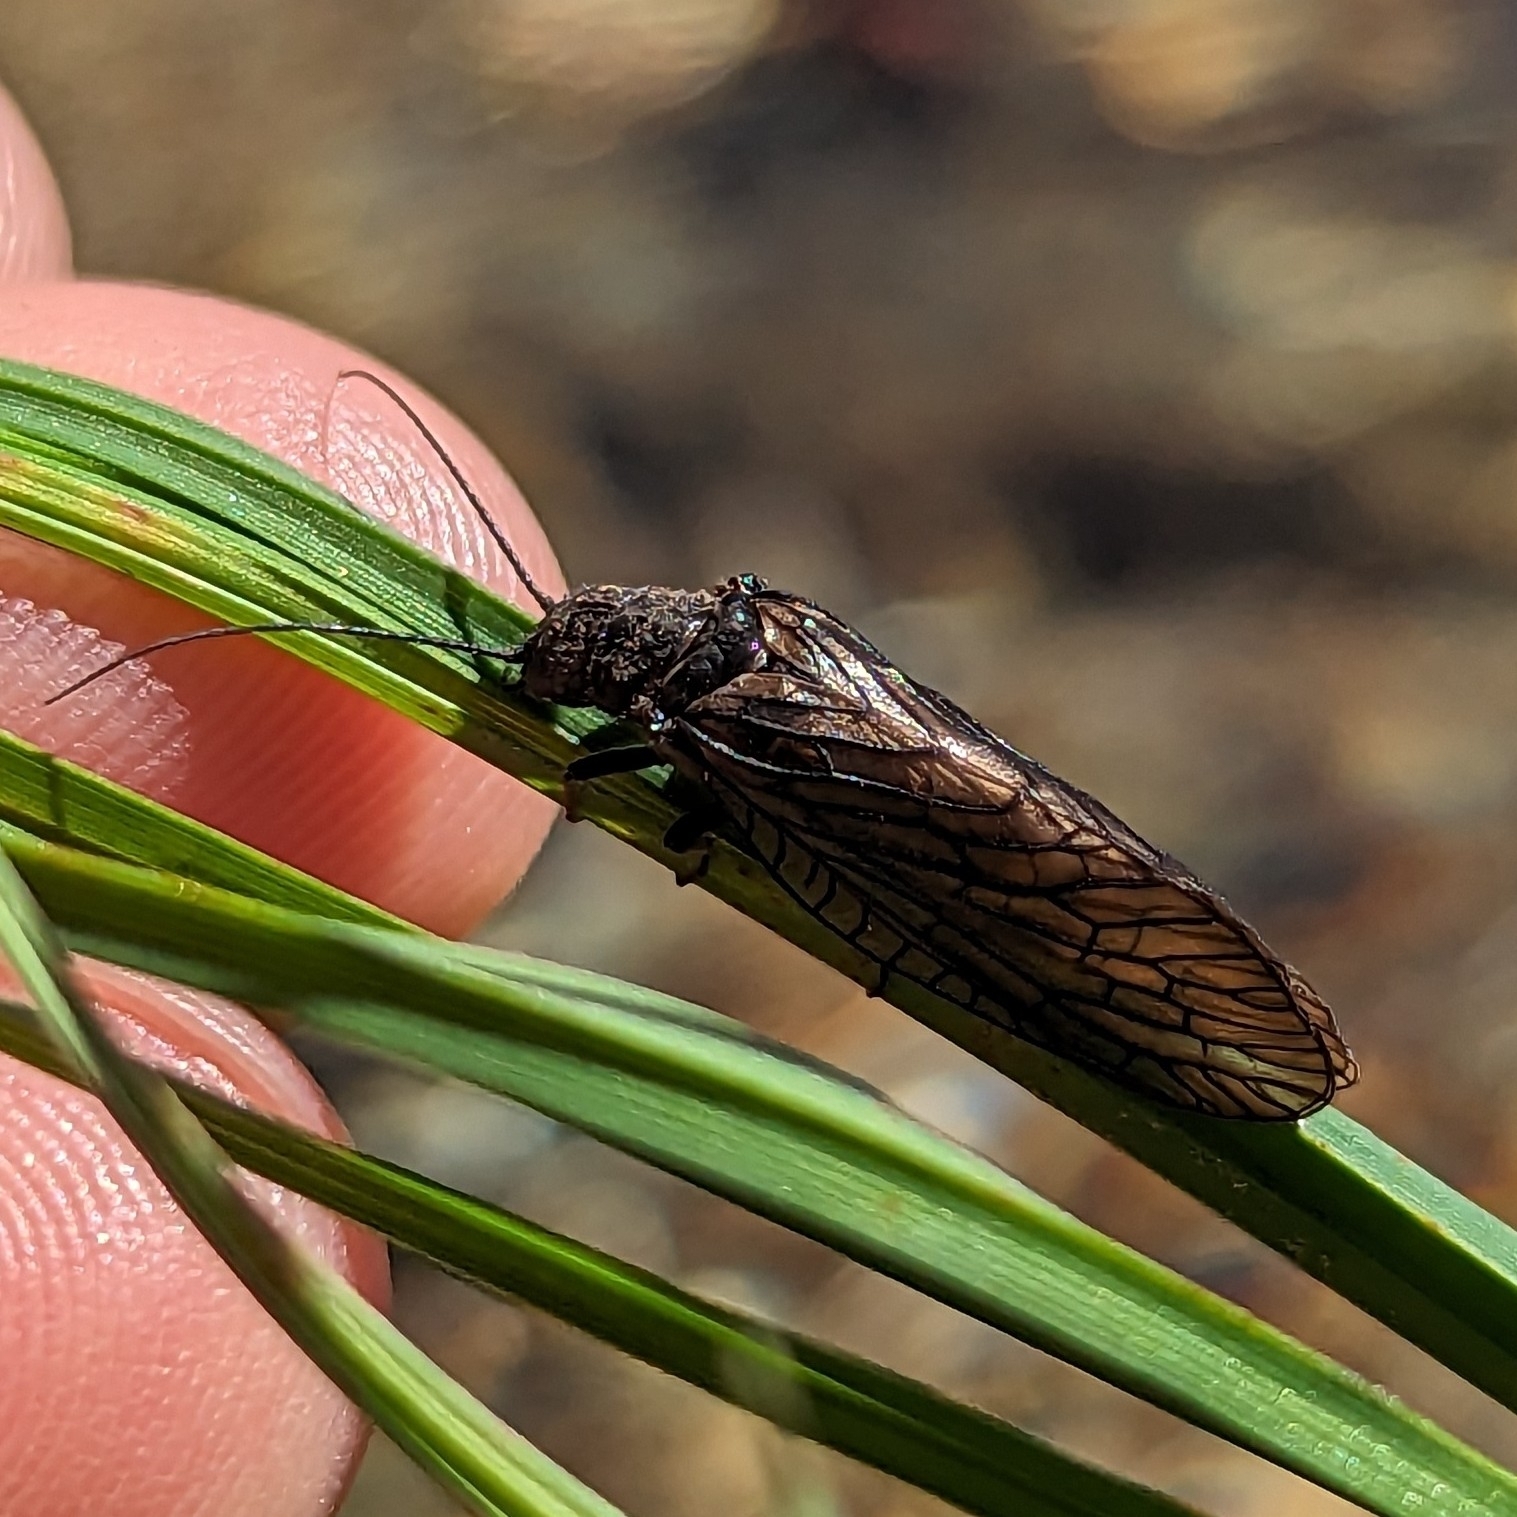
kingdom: Animalia
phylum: Arthropoda
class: Insecta
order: Megaloptera
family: Sialidae
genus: Sialis
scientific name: Sialis
